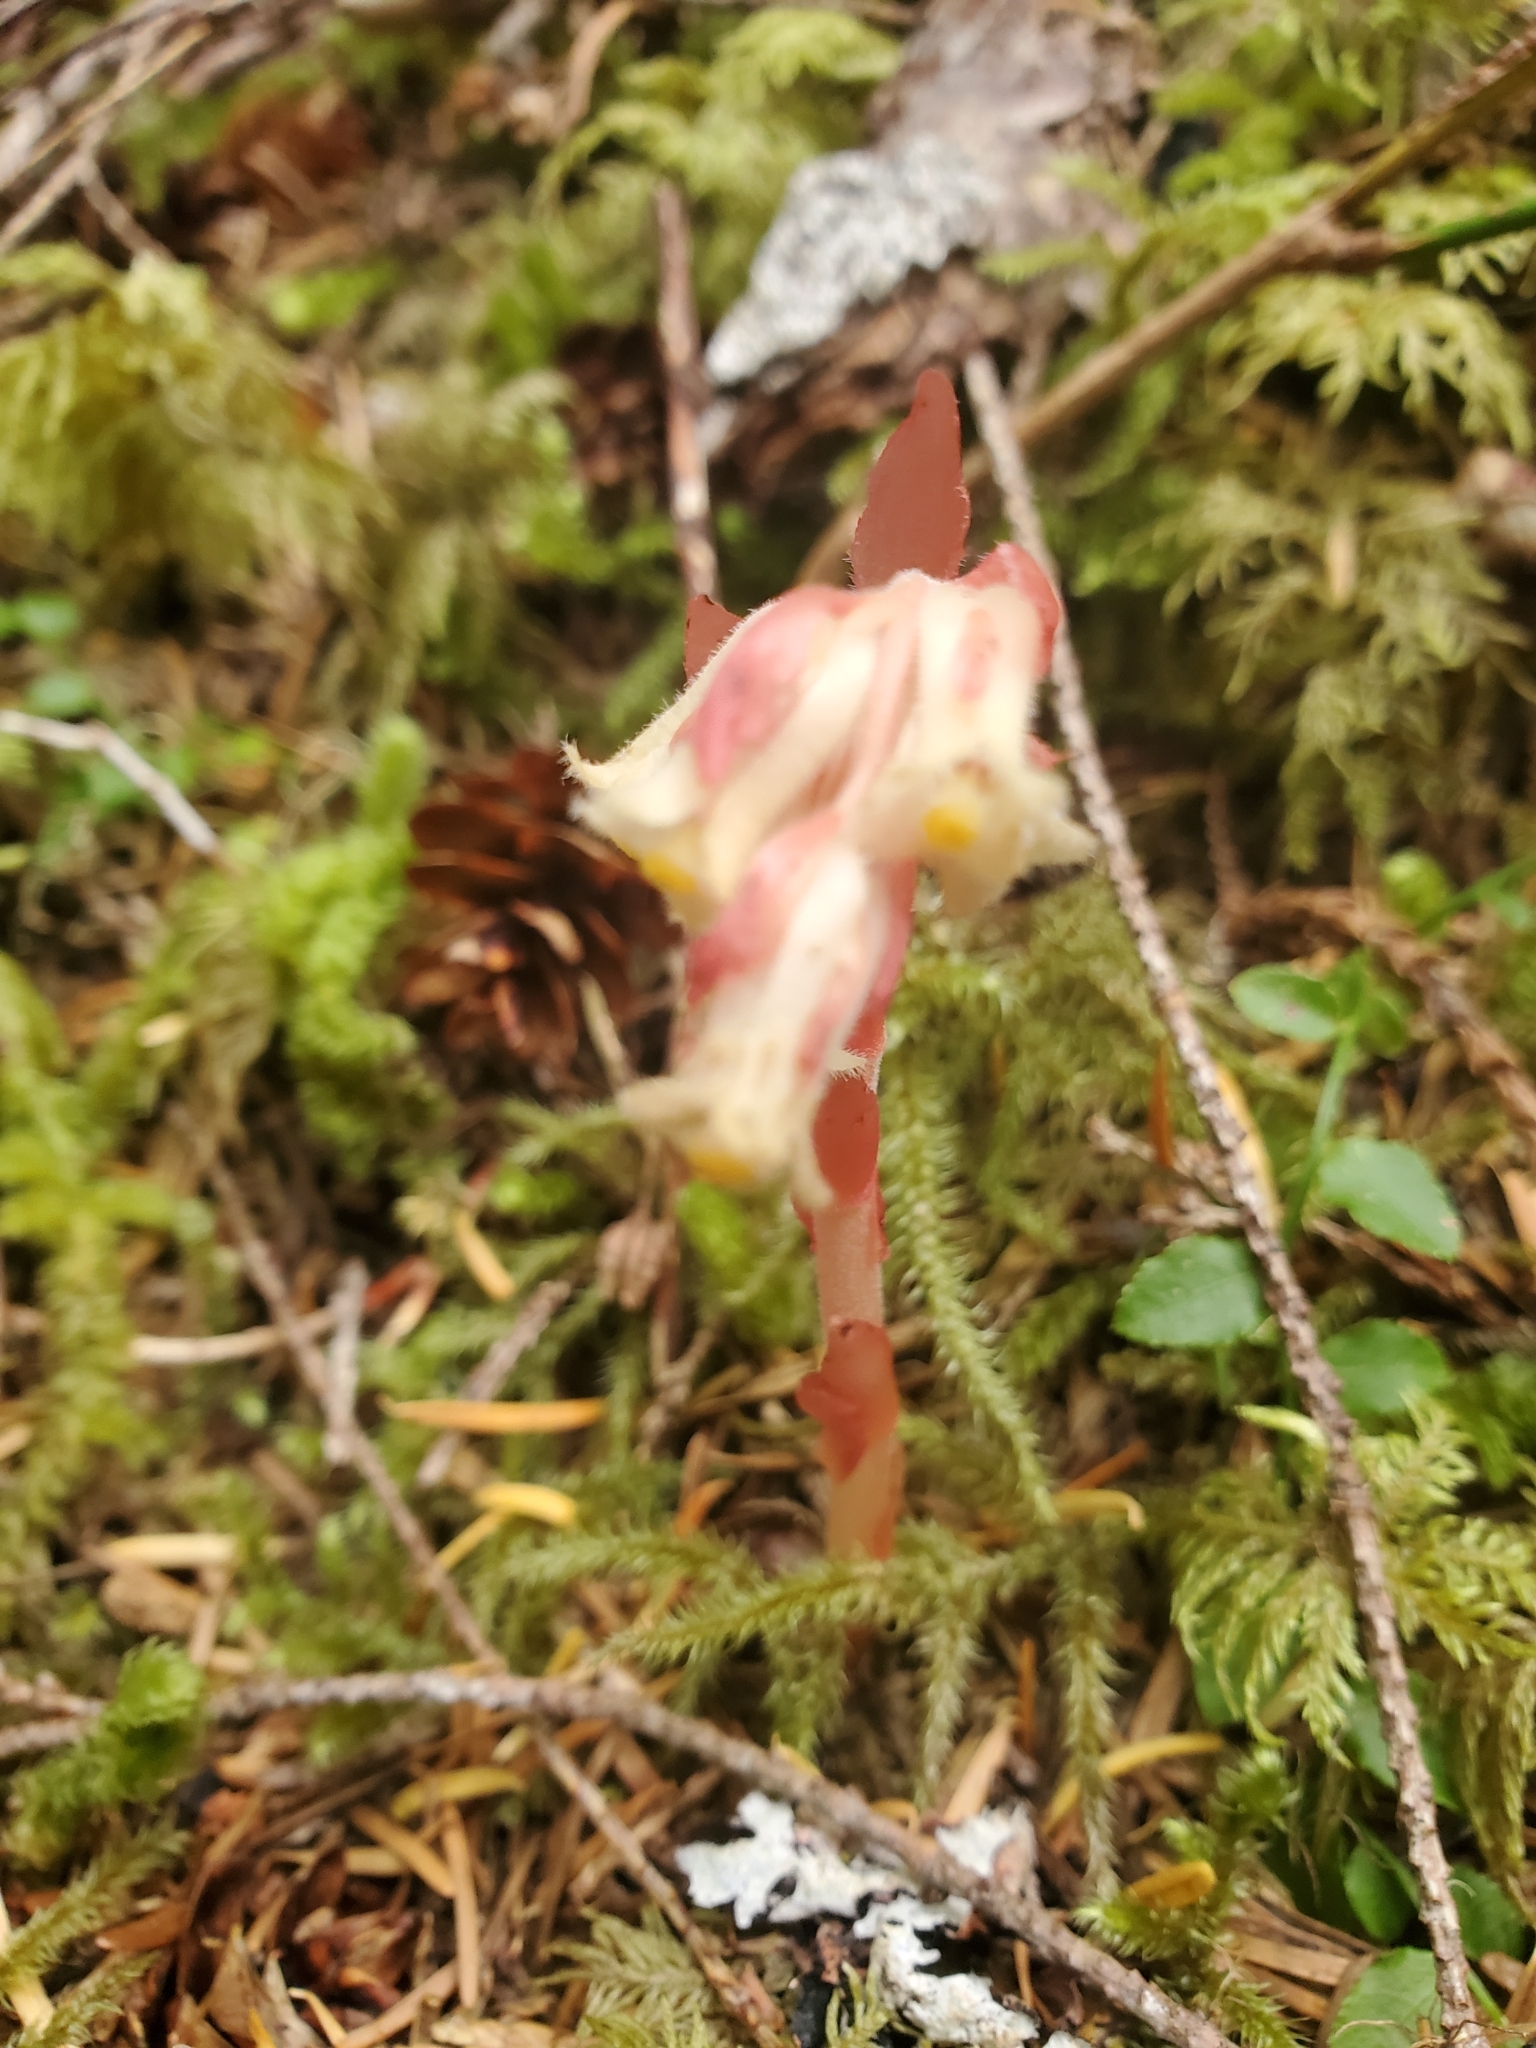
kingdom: Plantae
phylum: Tracheophyta
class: Magnoliopsida
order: Ericales
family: Ericaceae
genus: Hypopitys
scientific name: Hypopitys monotropa
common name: Yellow bird's-nest
